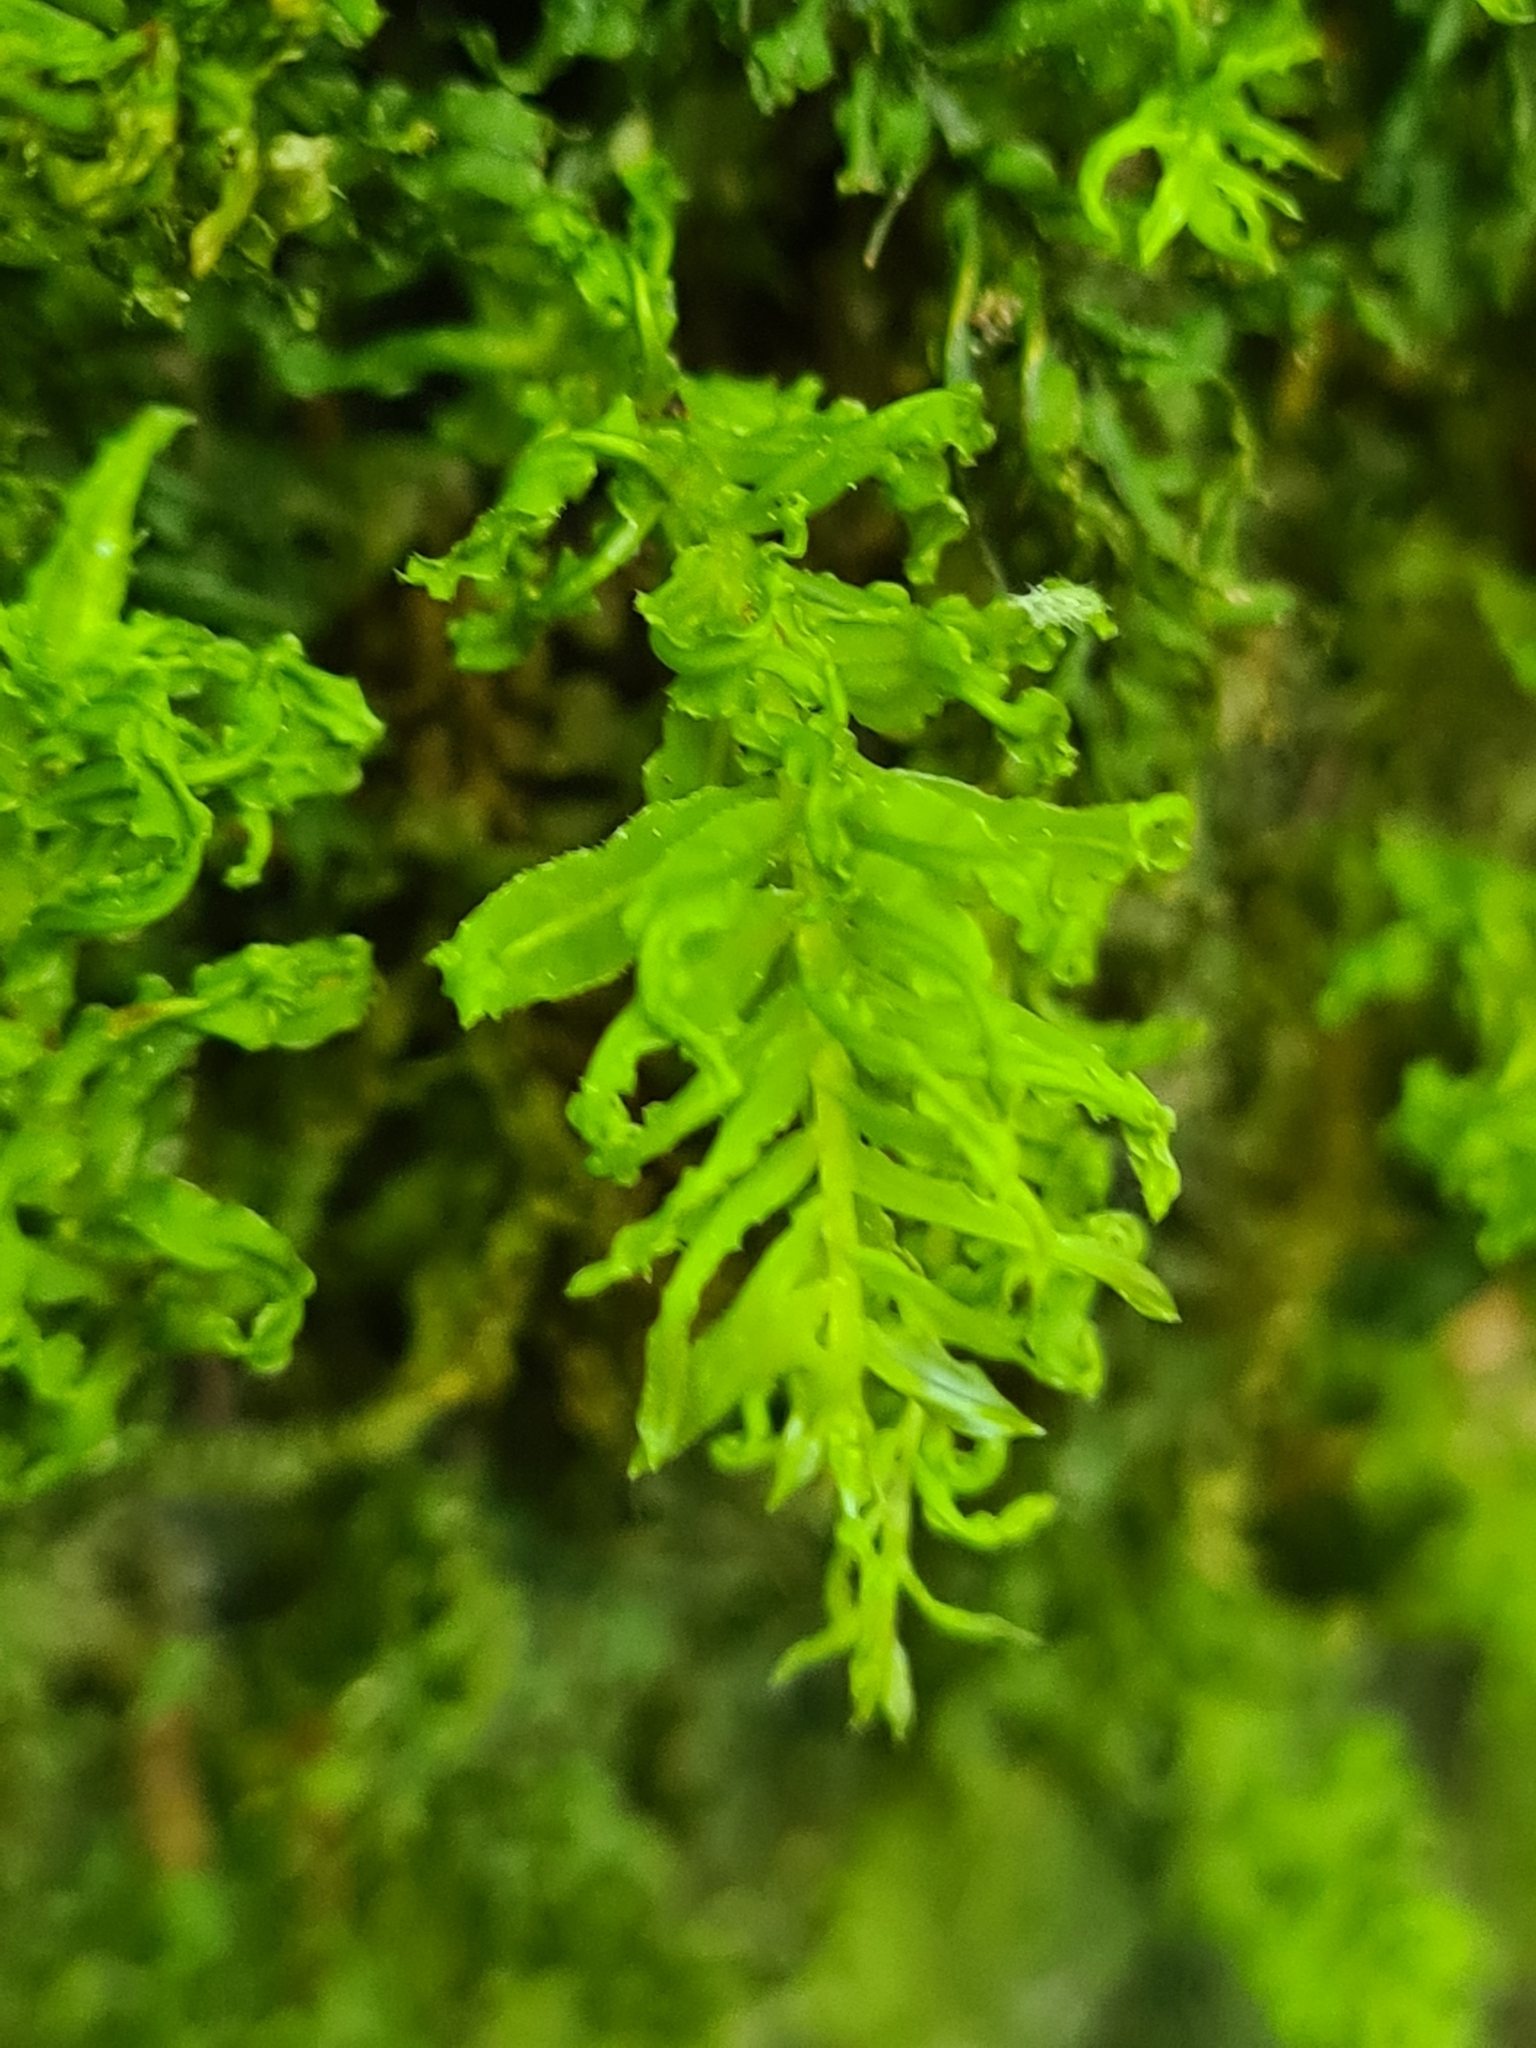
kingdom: Plantae
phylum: Bryophyta
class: Bryopsida
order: Bryales
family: Mniaceae
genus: Plagiomnium
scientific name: Plagiomnium undulatum
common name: Hart's-tongue thyme-moss
